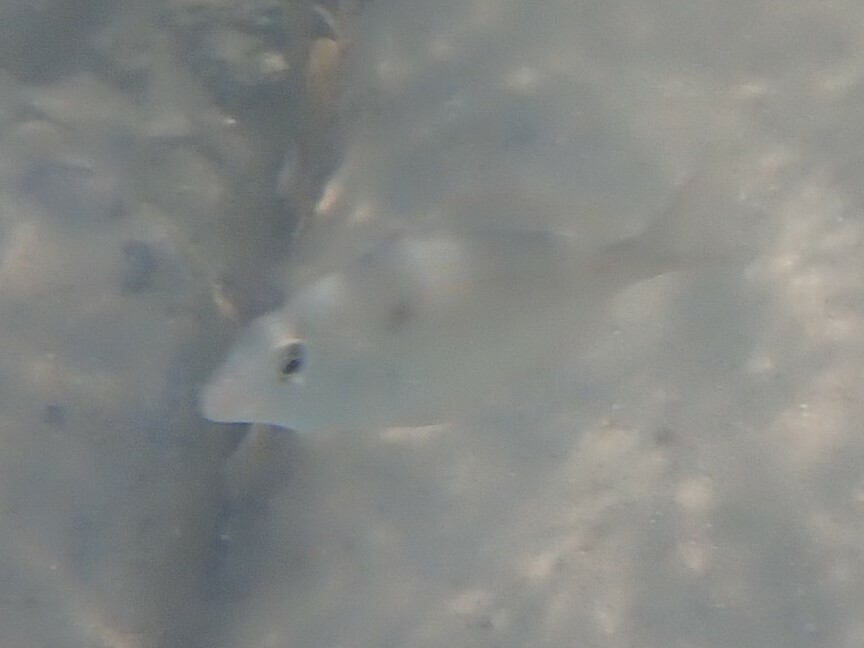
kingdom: Animalia
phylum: Chordata
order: Perciformes
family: Sparidae
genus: Lagodon
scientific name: Lagodon rhomboides
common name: Pinfish
